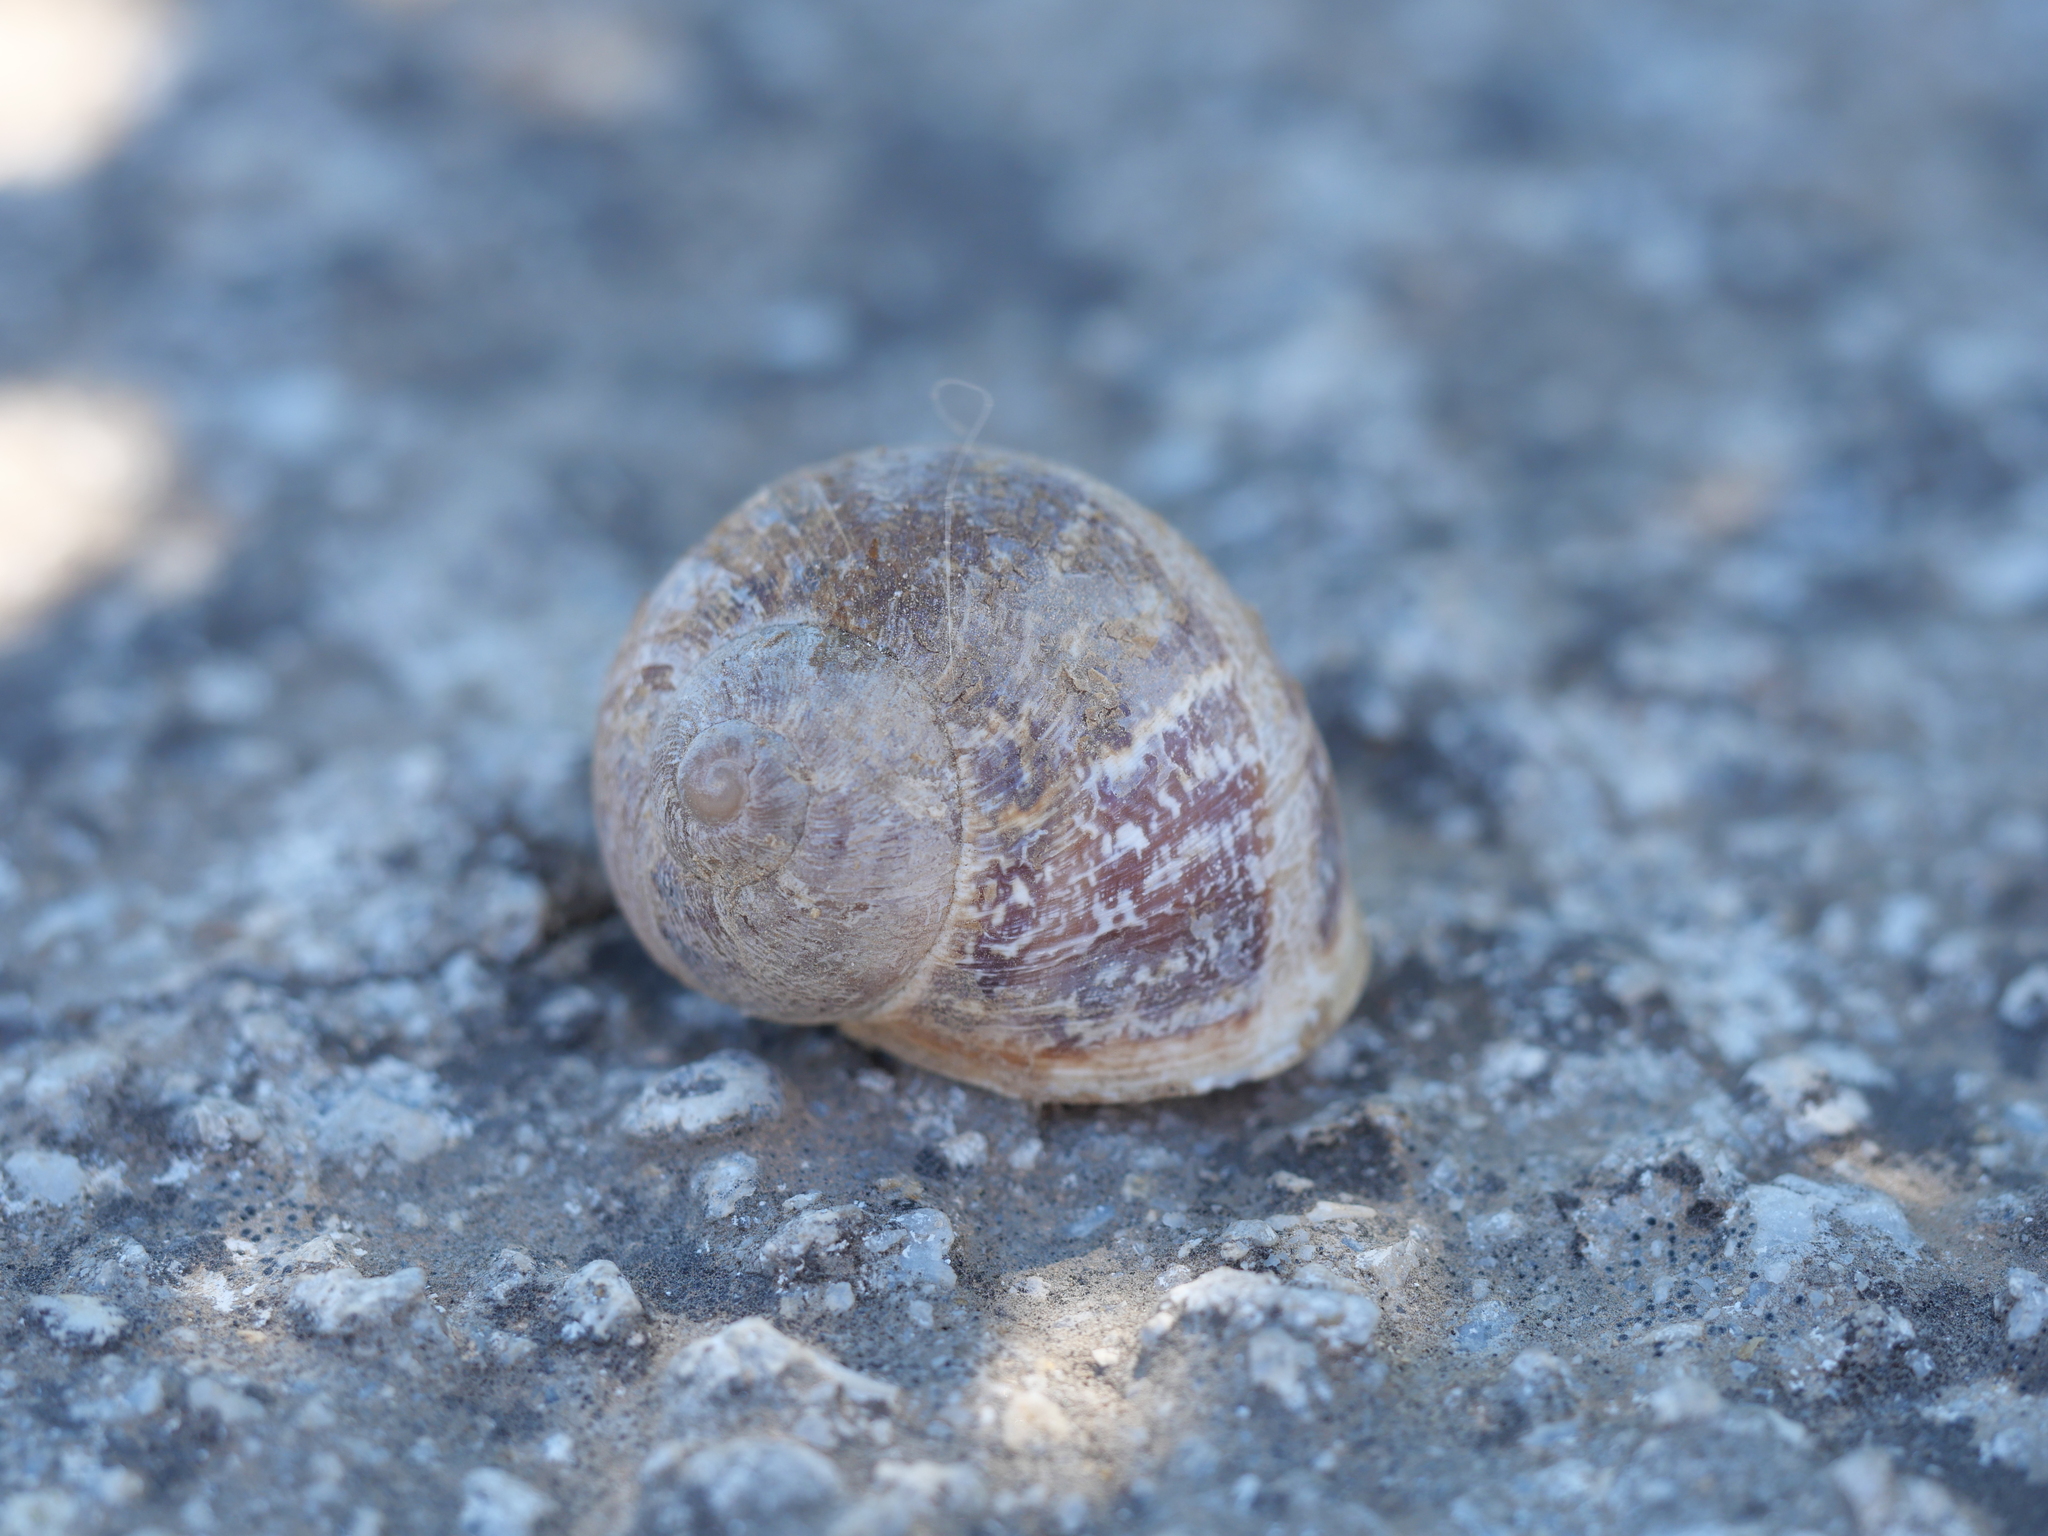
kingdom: Animalia
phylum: Mollusca
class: Gastropoda
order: Stylommatophora
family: Helicidae
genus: Cornu
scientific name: Cornu aspersum
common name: Brown garden snail
